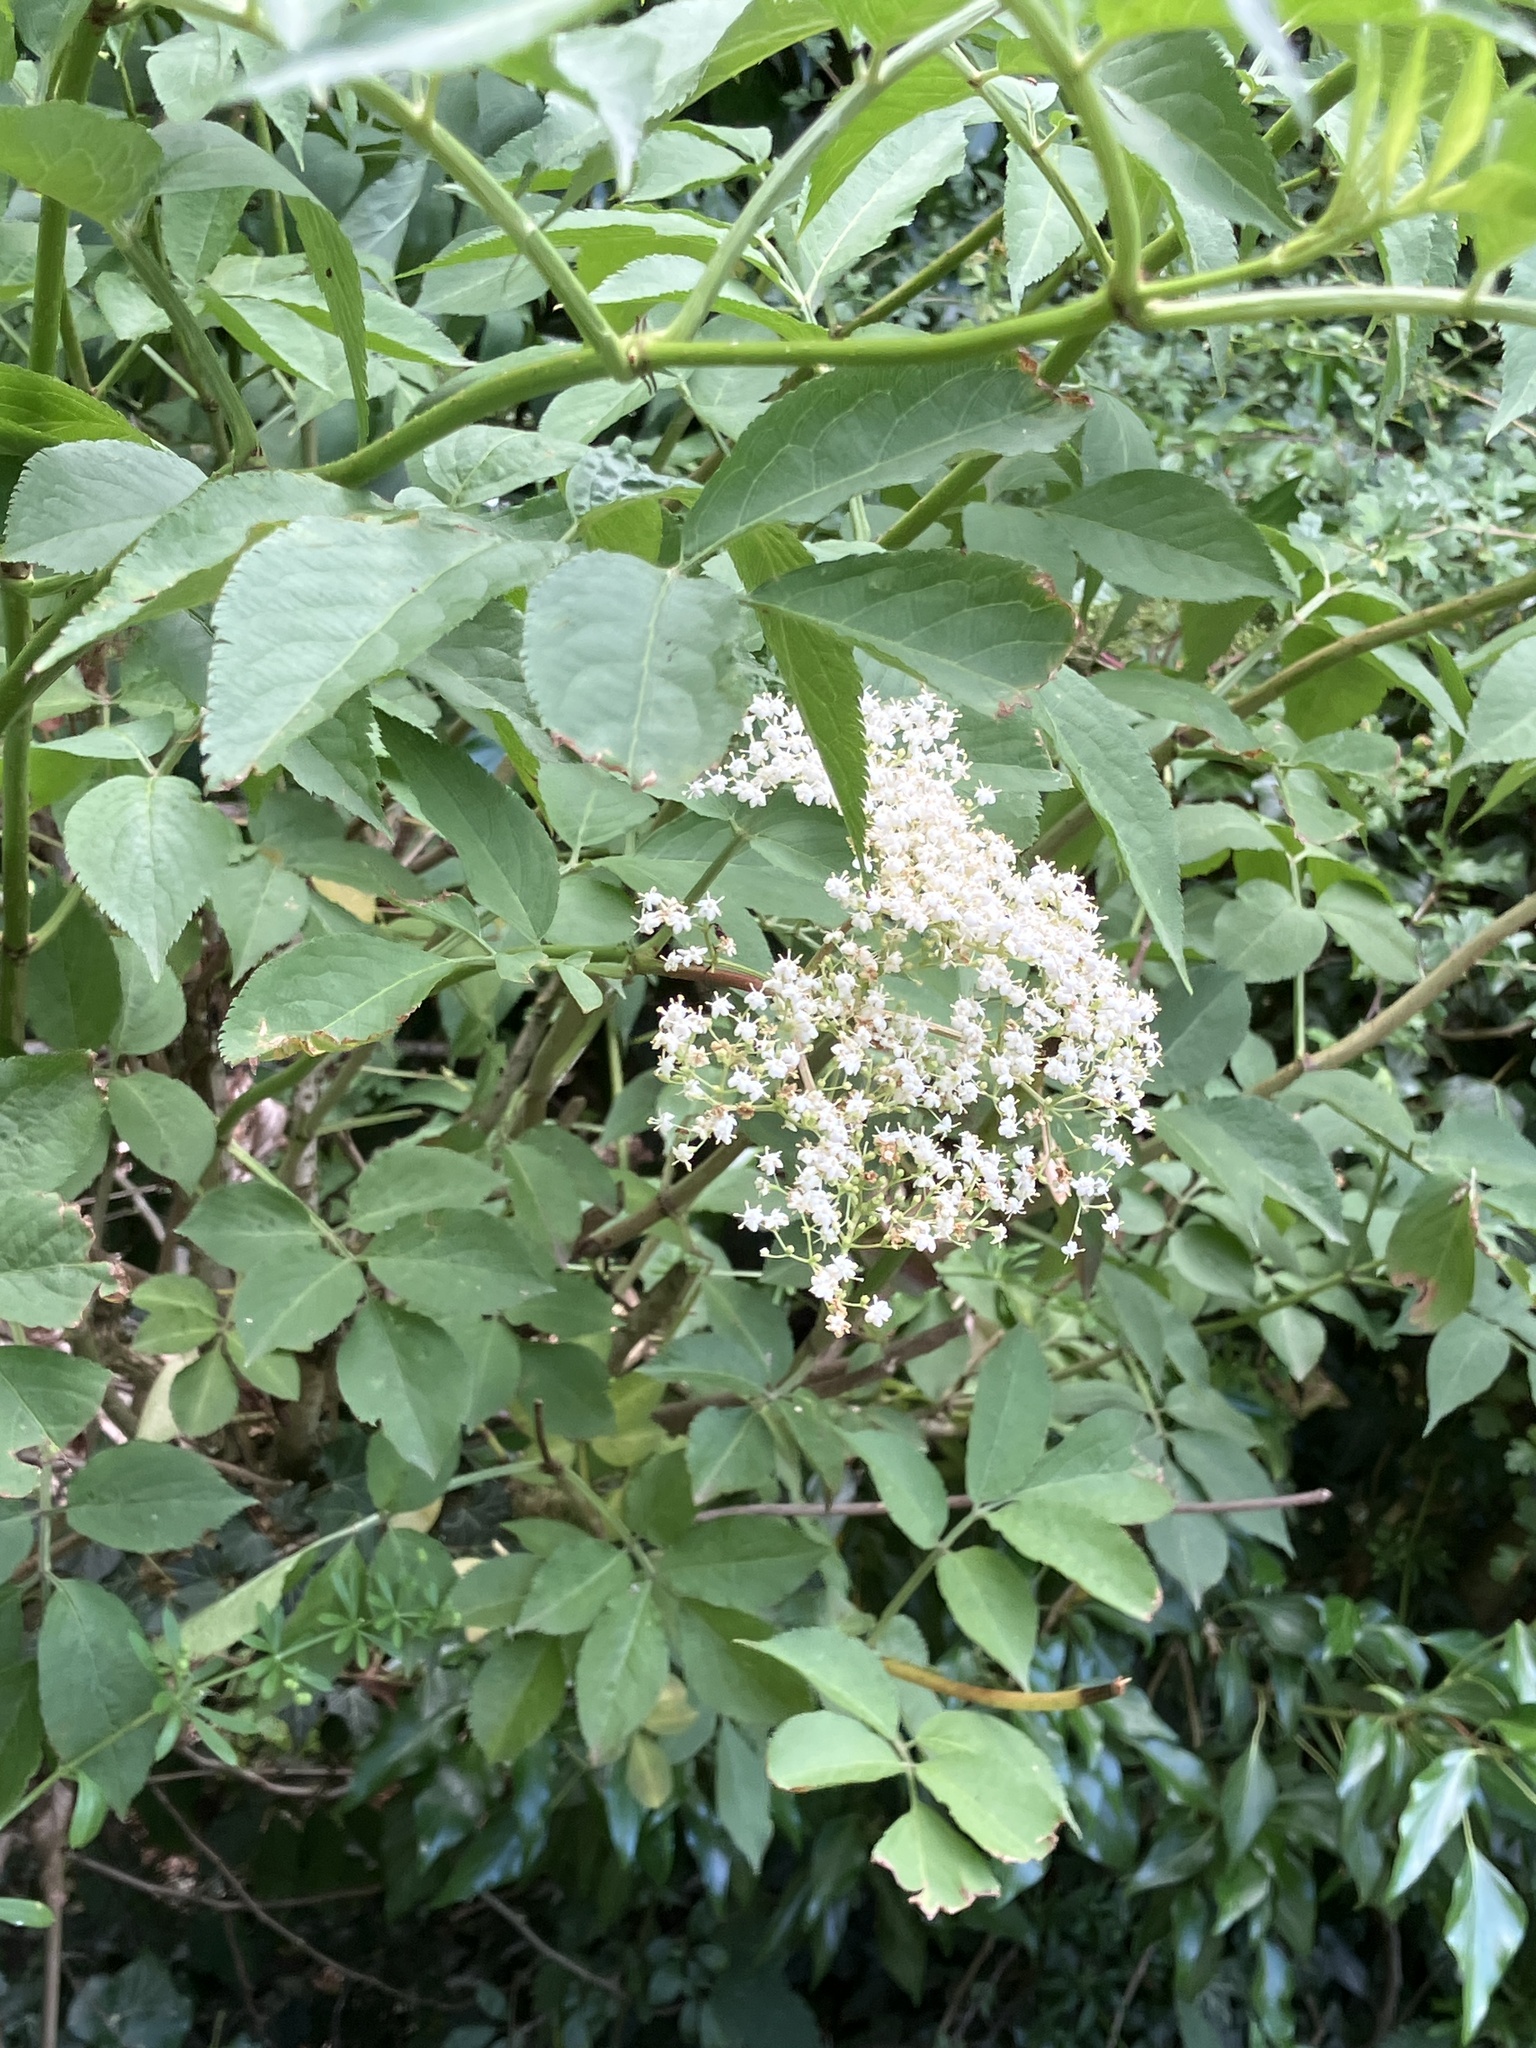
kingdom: Plantae
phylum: Tracheophyta
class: Magnoliopsida
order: Dipsacales
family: Viburnaceae
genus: Sambucus
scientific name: Sambucus nigra
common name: Elder
